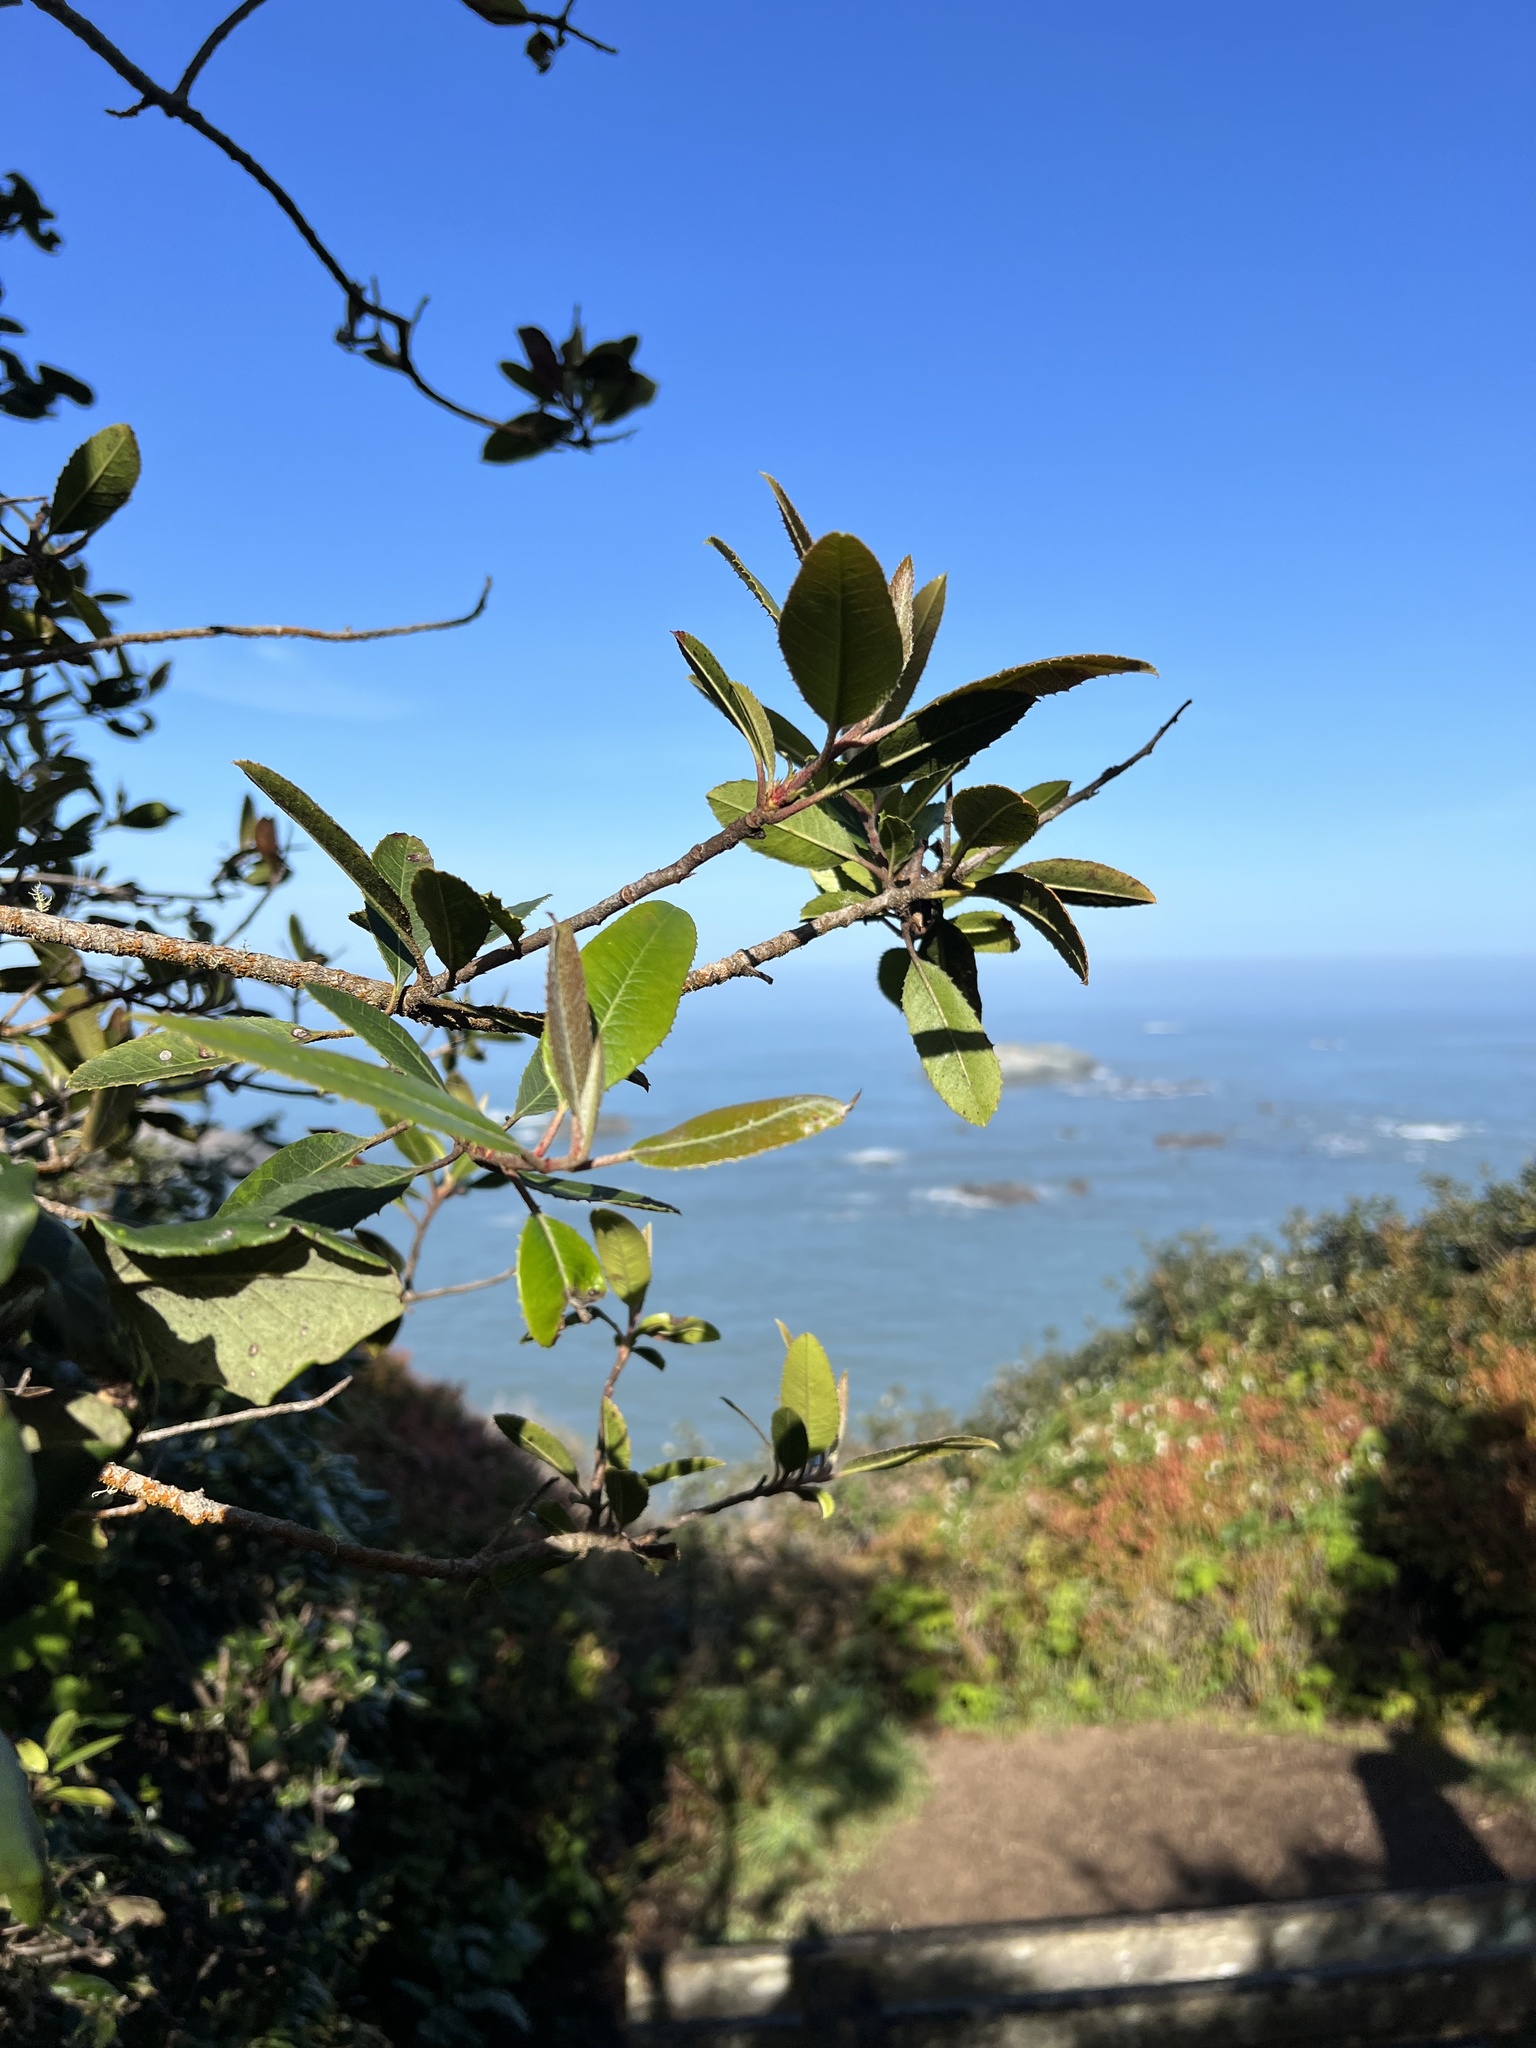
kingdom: Plantae
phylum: Tracheophyta
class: Magnoliopsida
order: Rosales
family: Rosaceae
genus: Heteromeles
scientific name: Heteromeles arbutifolia
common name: California-holly
